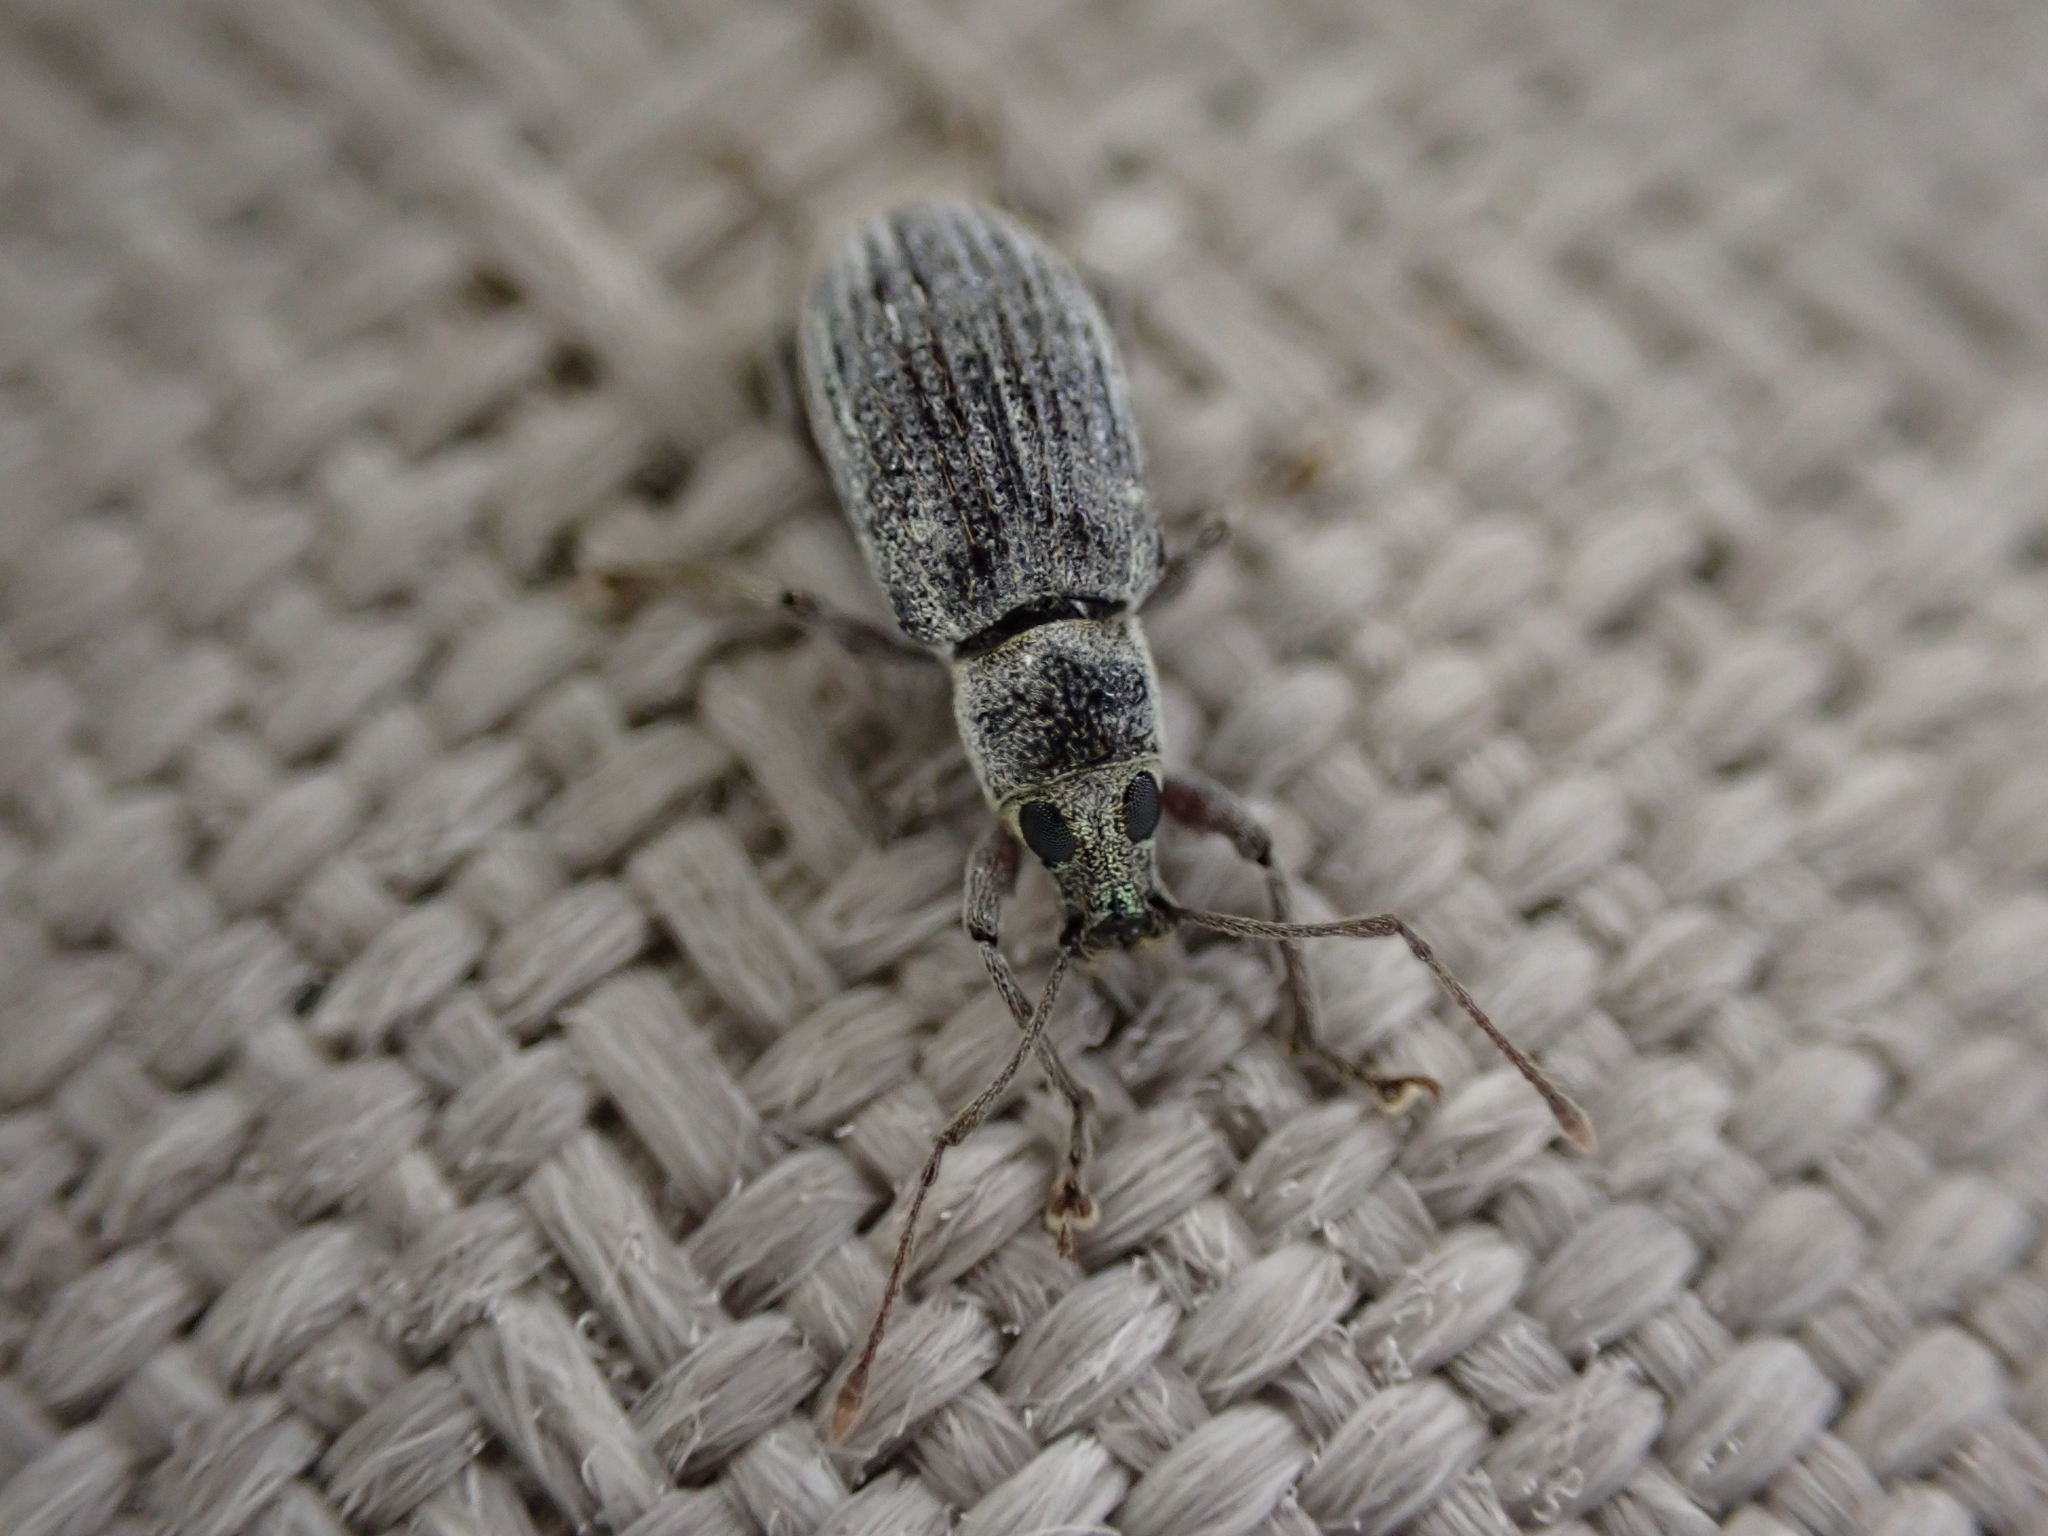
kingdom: Animalia
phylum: Arthropoda
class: Insecta
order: Coleoptera
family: Curculionidae
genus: Cyrtepistomus
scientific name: Cyrtepistomus castaneus
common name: Weevil
